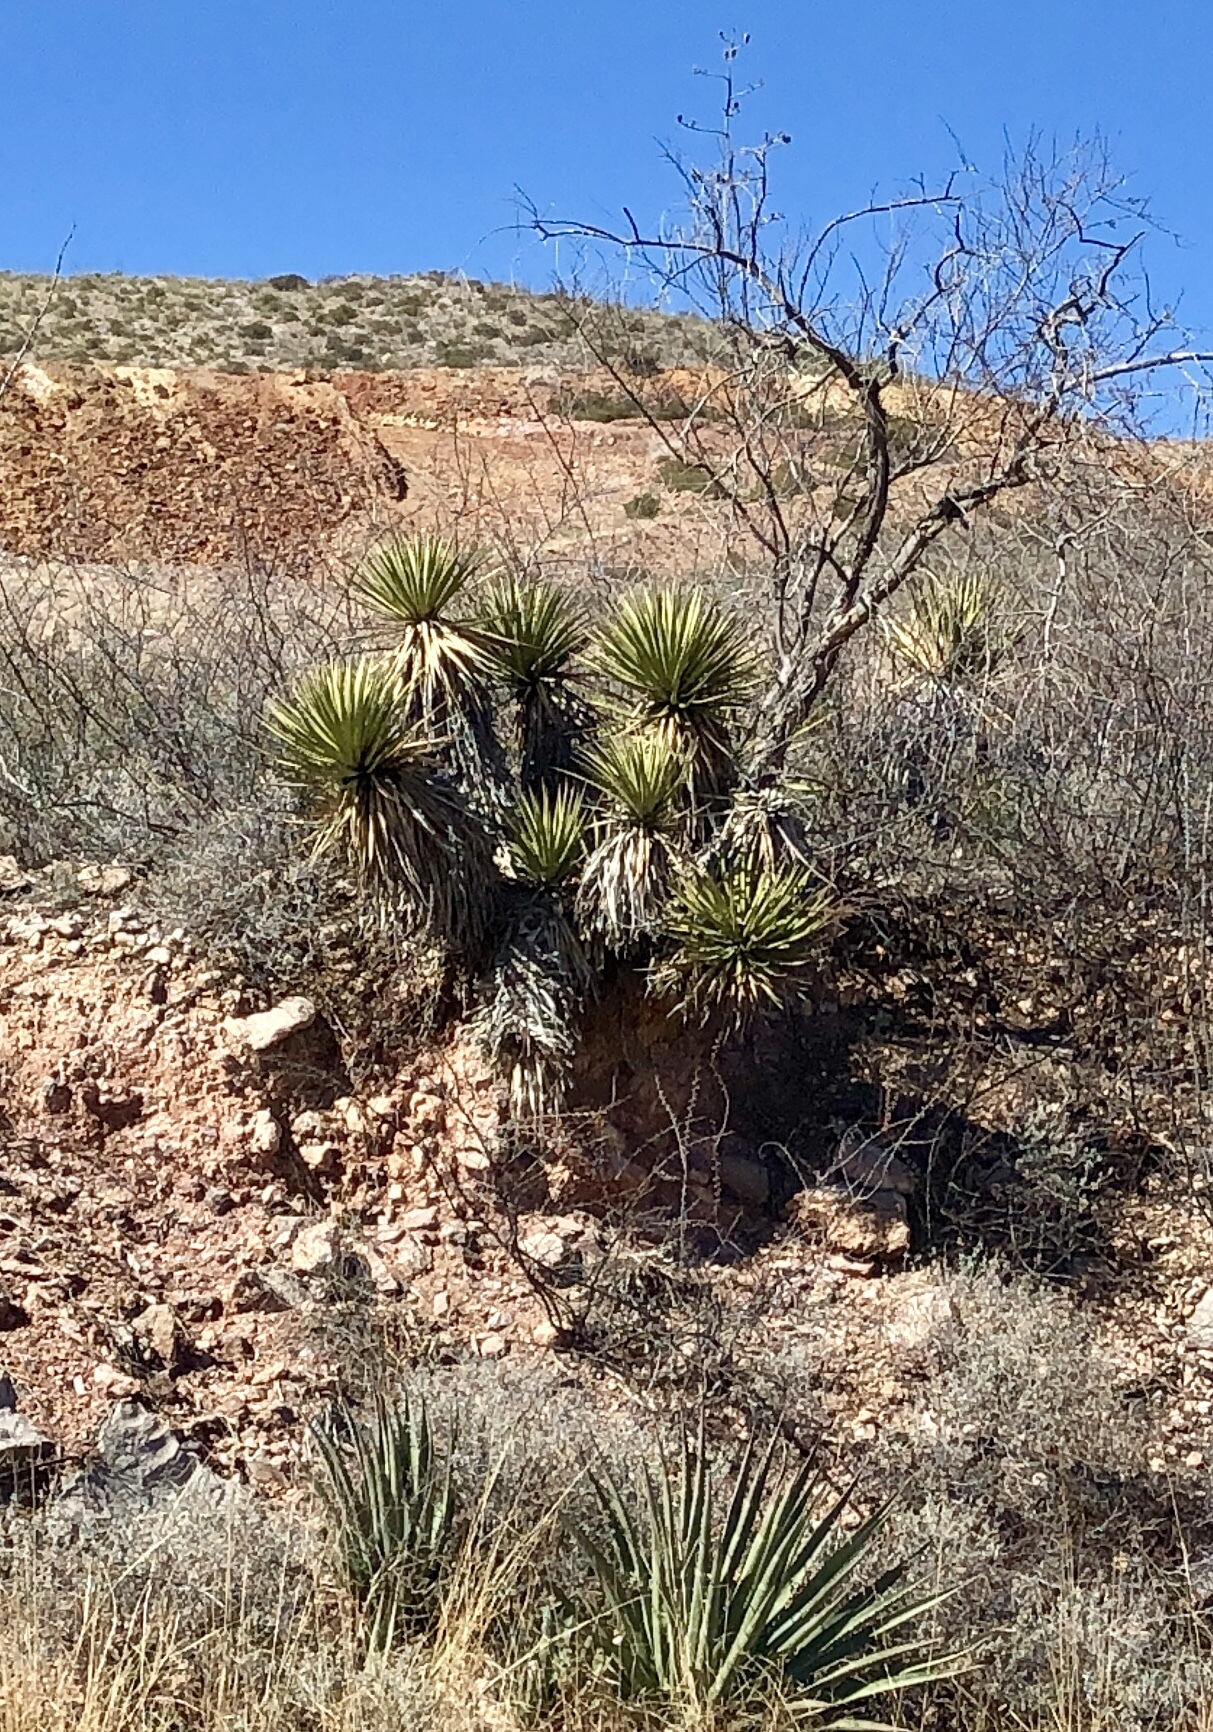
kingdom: Plantae
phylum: Tracheophyta
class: Liliopsida
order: Asparagales
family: Asparagaceae
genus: Yucca
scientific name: Yucca baccata
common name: Banana yucca
